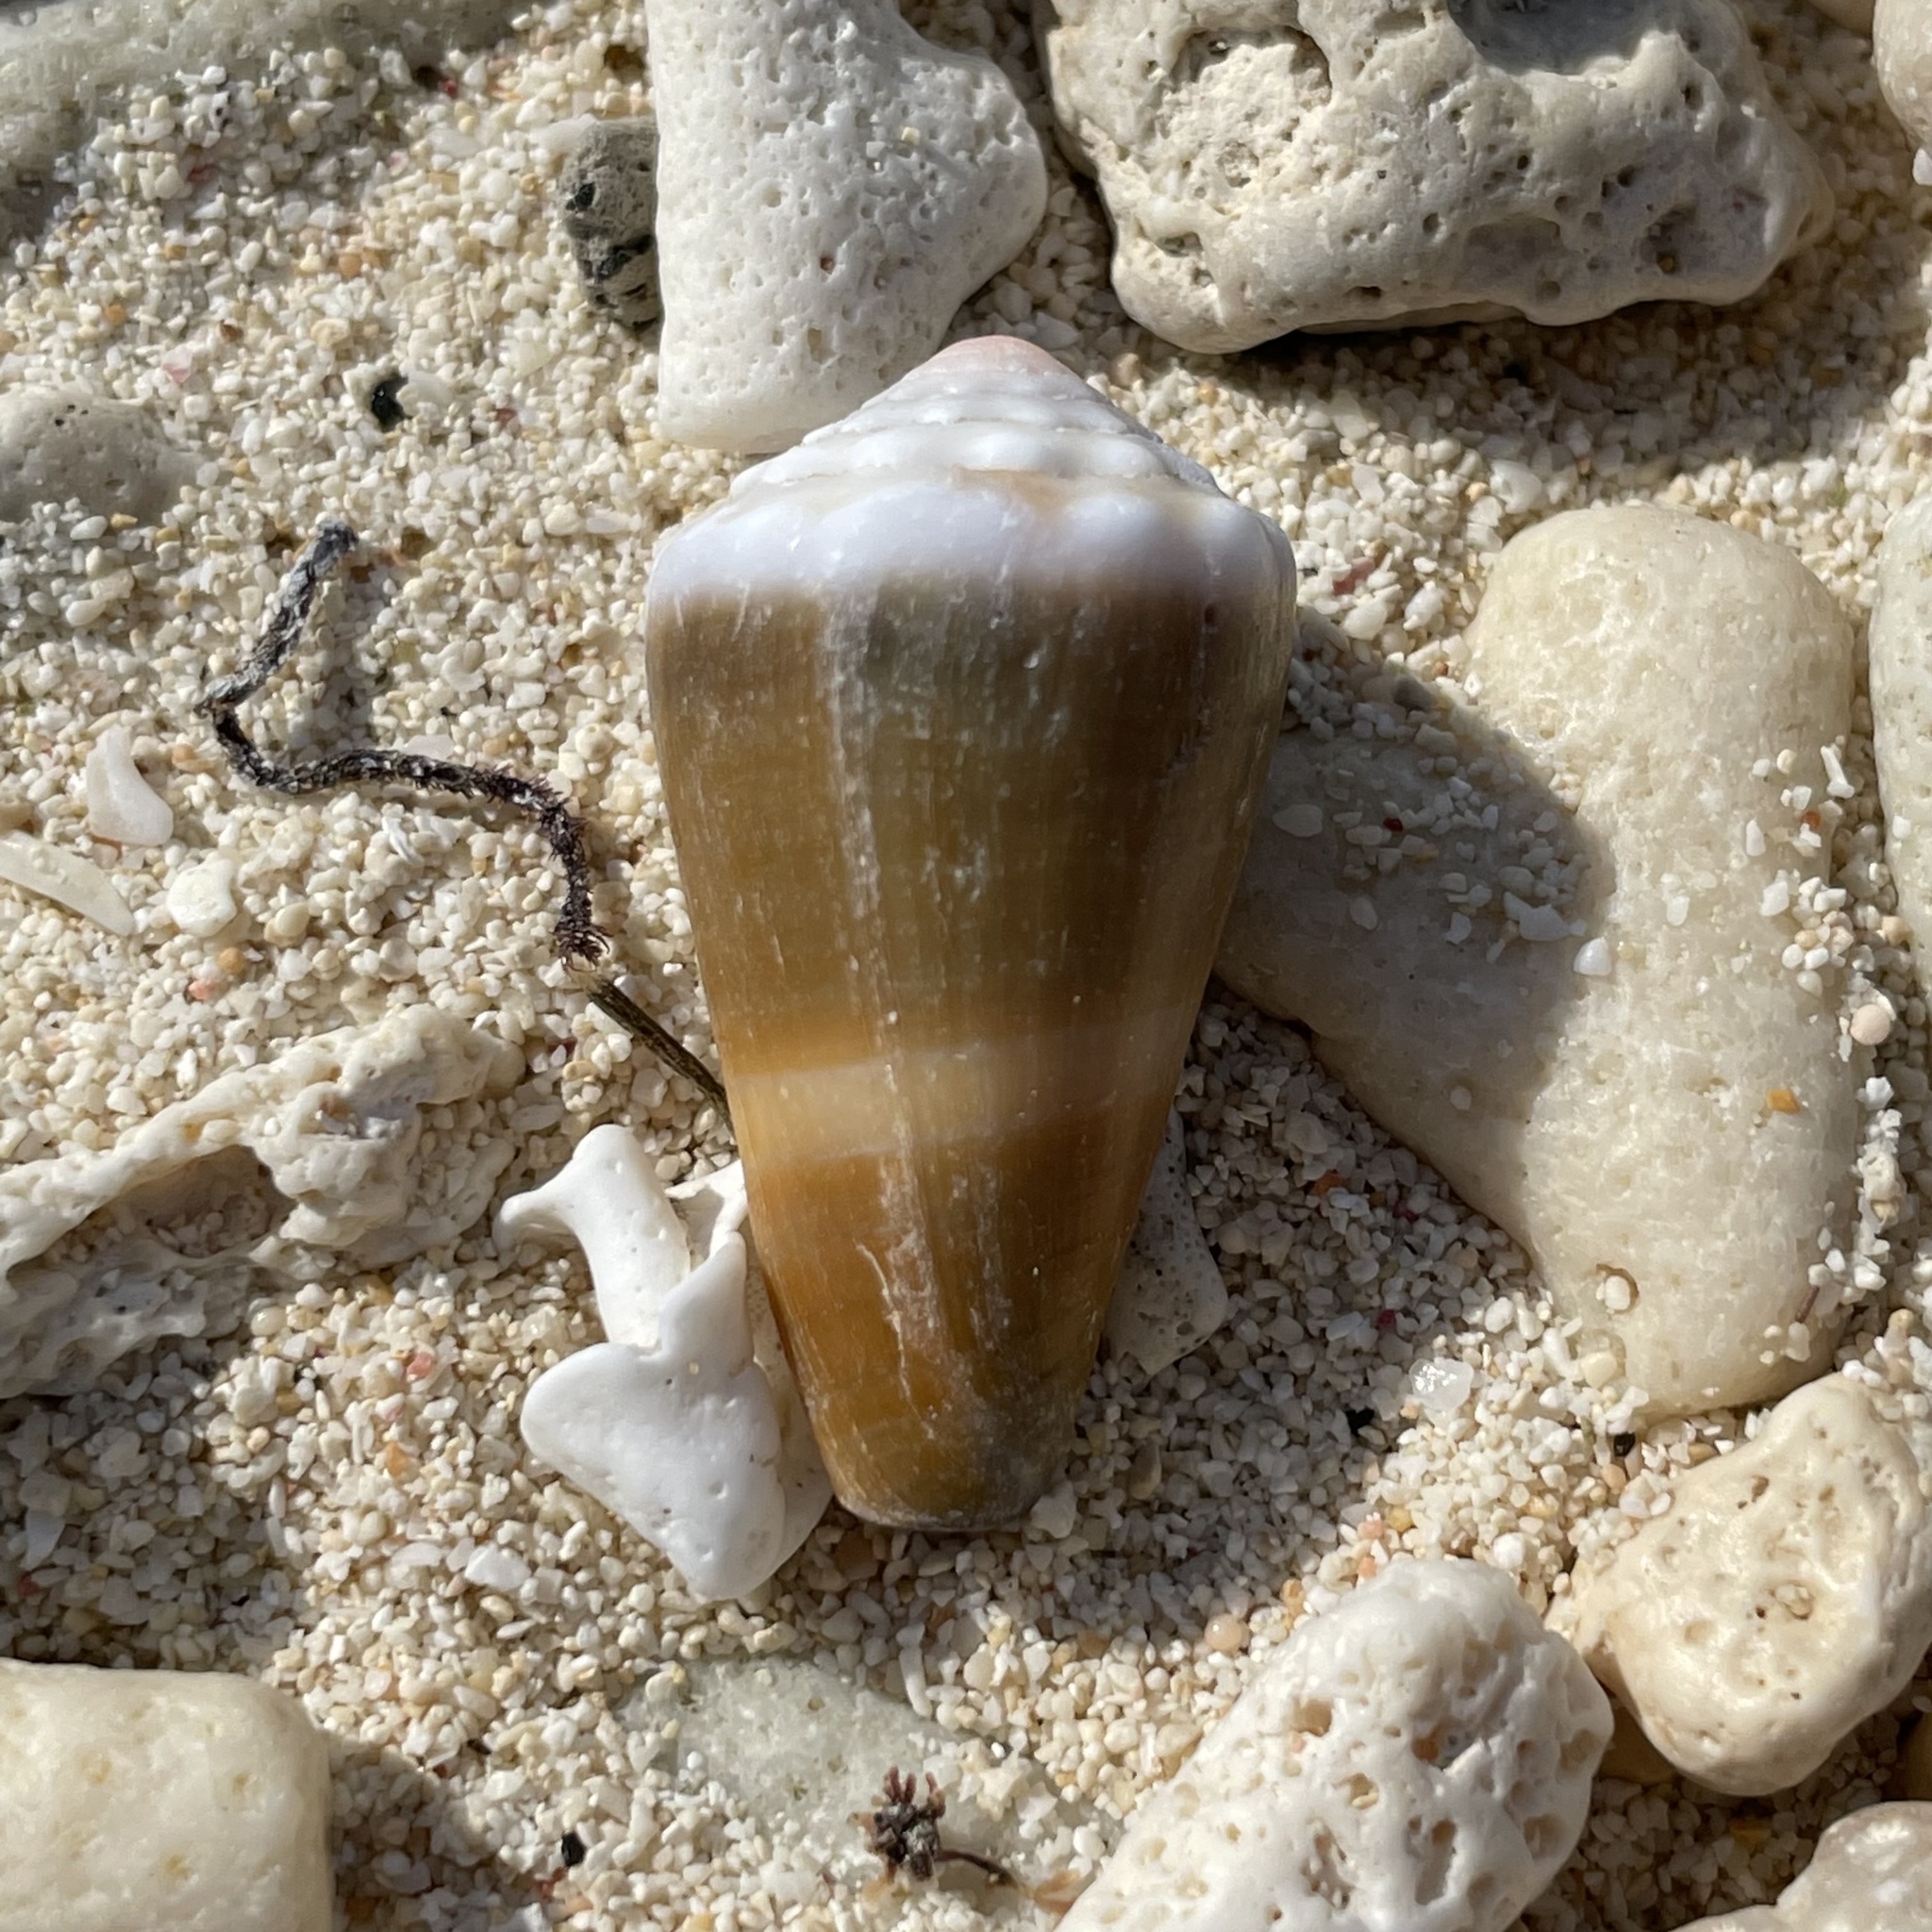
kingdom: Animalia
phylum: Mollusca
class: Gastropoda
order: Neogastropoda
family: Conidae
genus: Conus
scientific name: Conus lividus
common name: Livid cone
